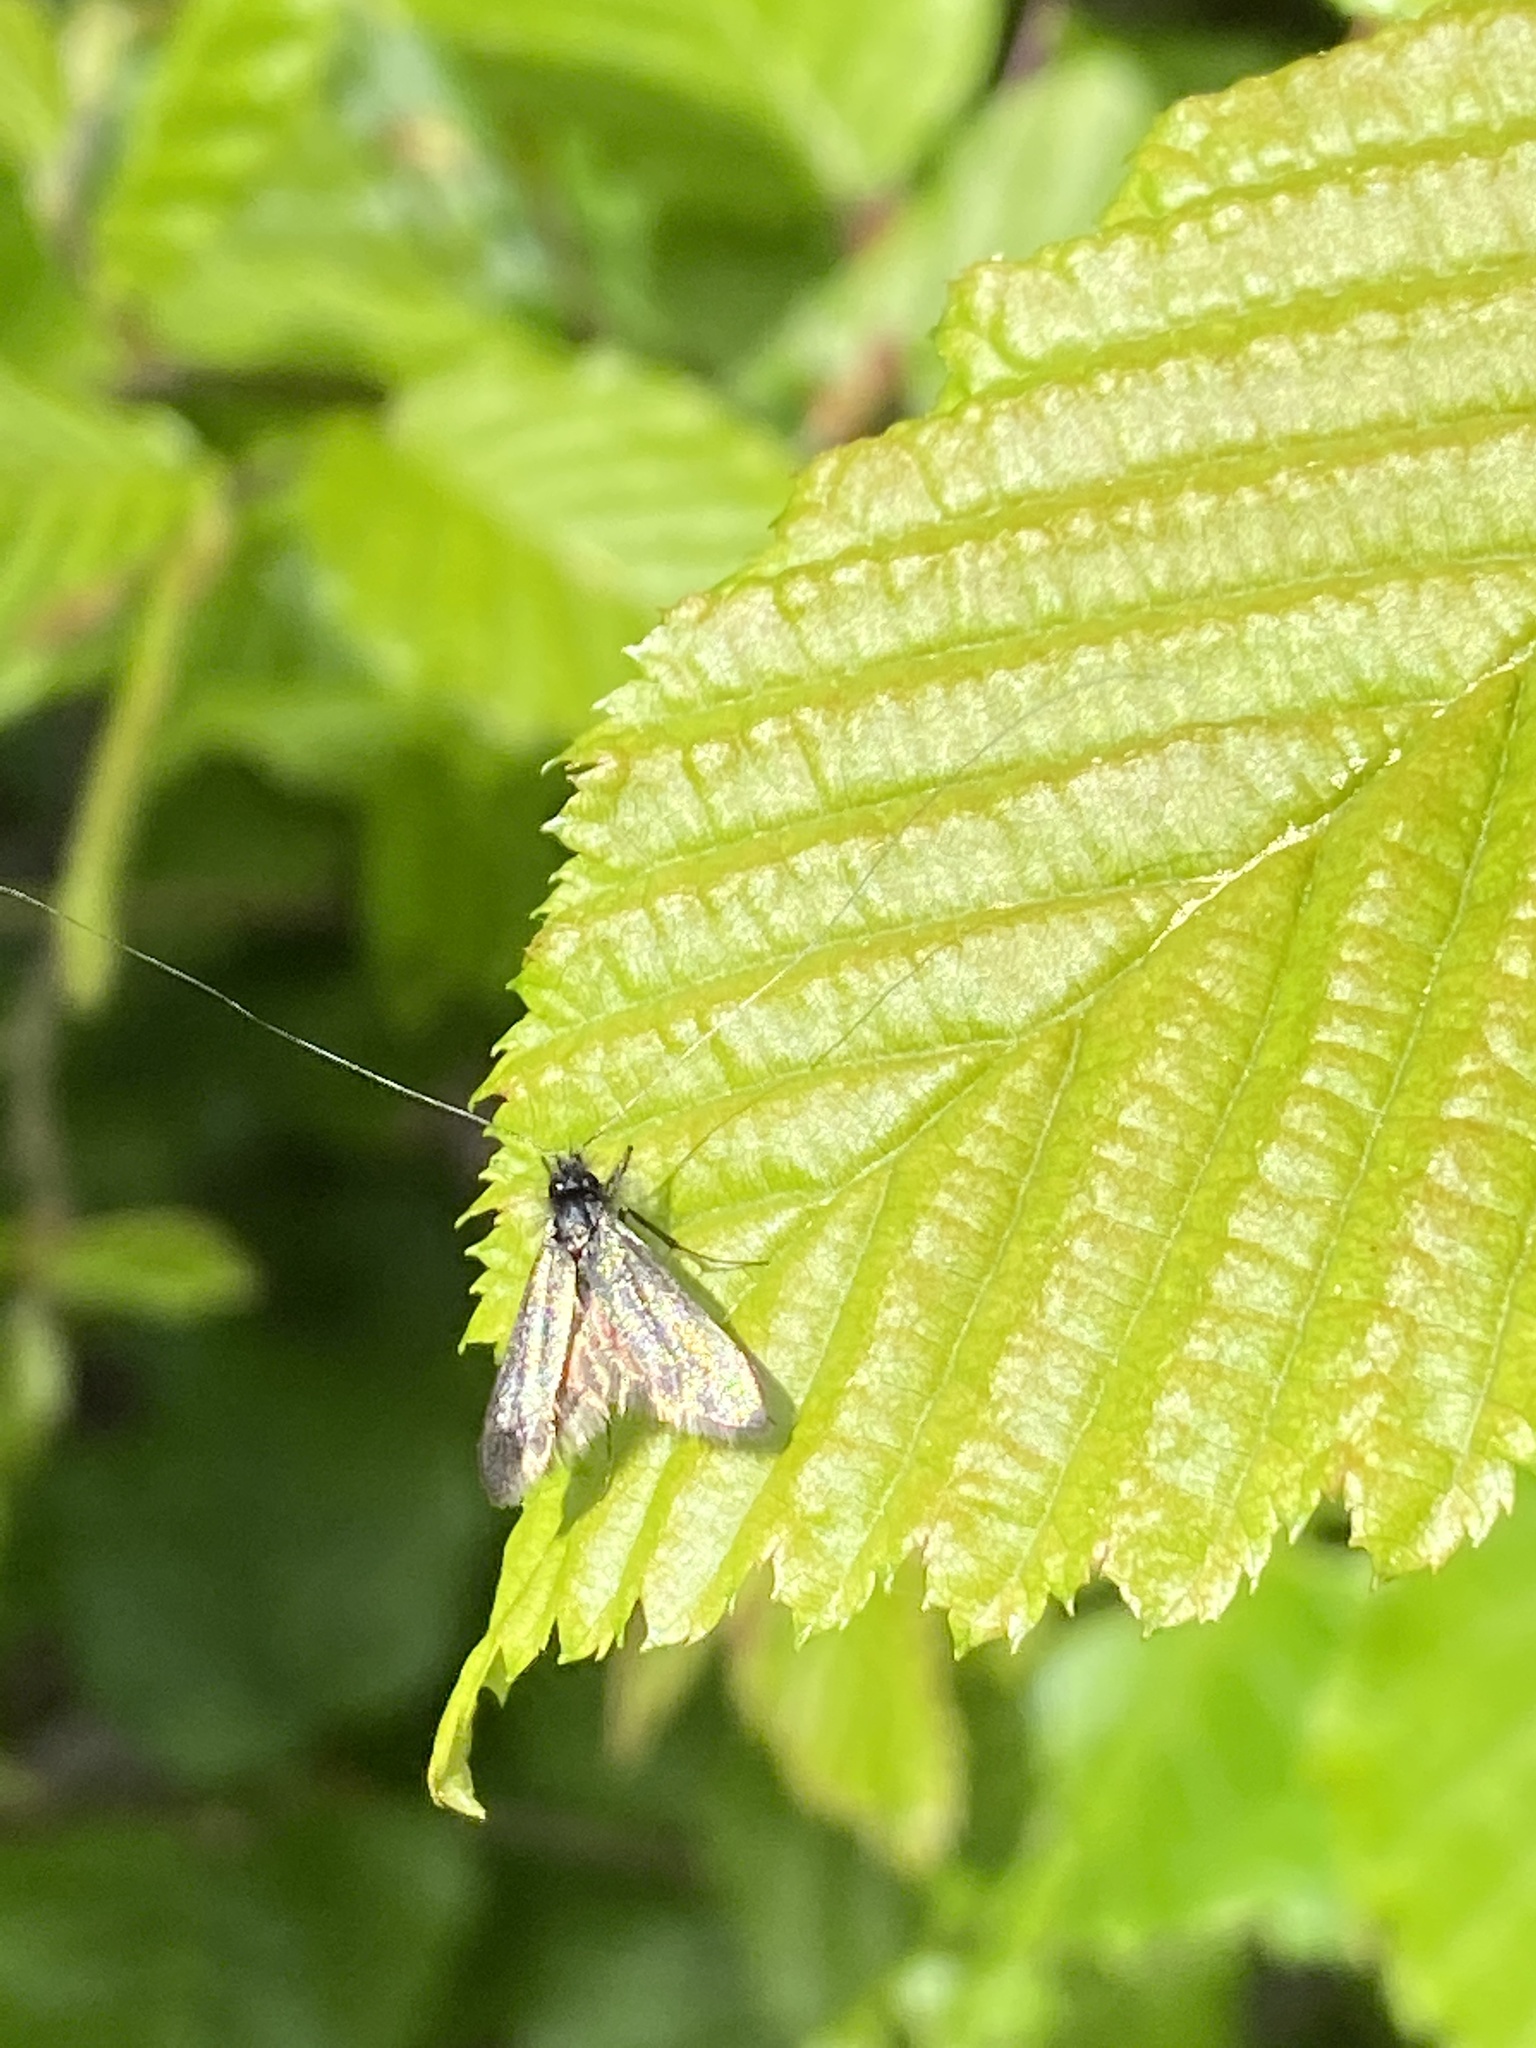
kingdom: Animalia
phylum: Arthropoda
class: Insecta
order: Lepidoptera
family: Adelidae
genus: Adela
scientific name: Adela viridella
